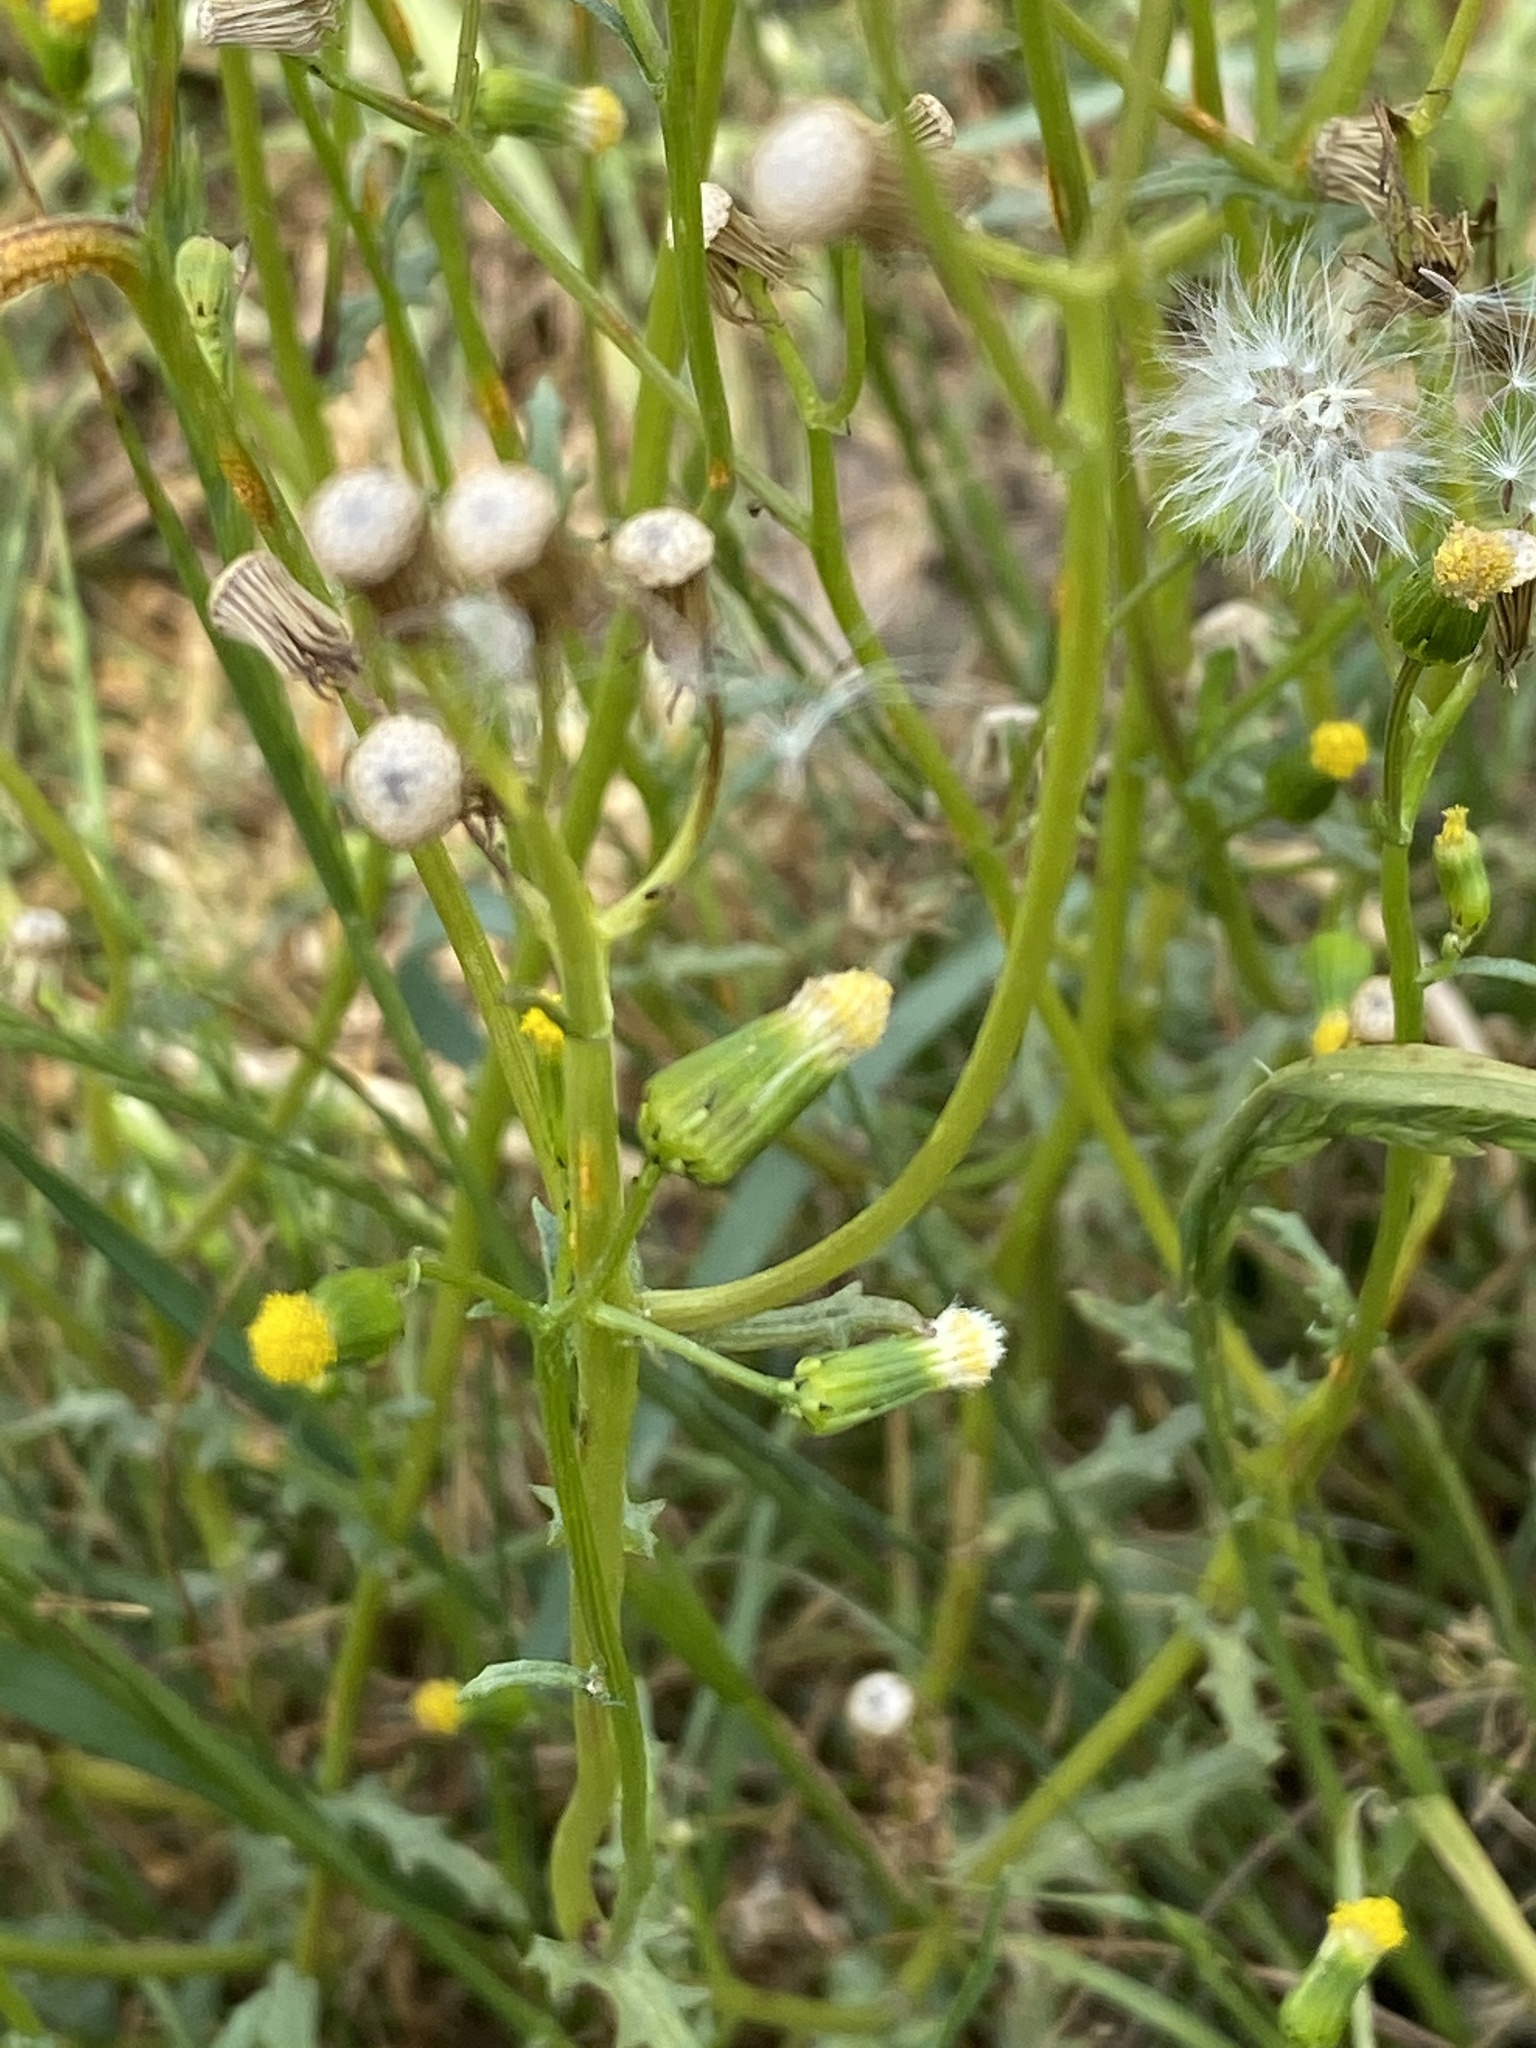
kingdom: Plantae
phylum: Tracheophyta
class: Magnoliopsida
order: Asterales
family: Asteraceae
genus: Senecio
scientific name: Senecio vulgaris
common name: Old-man-in-the-spring
